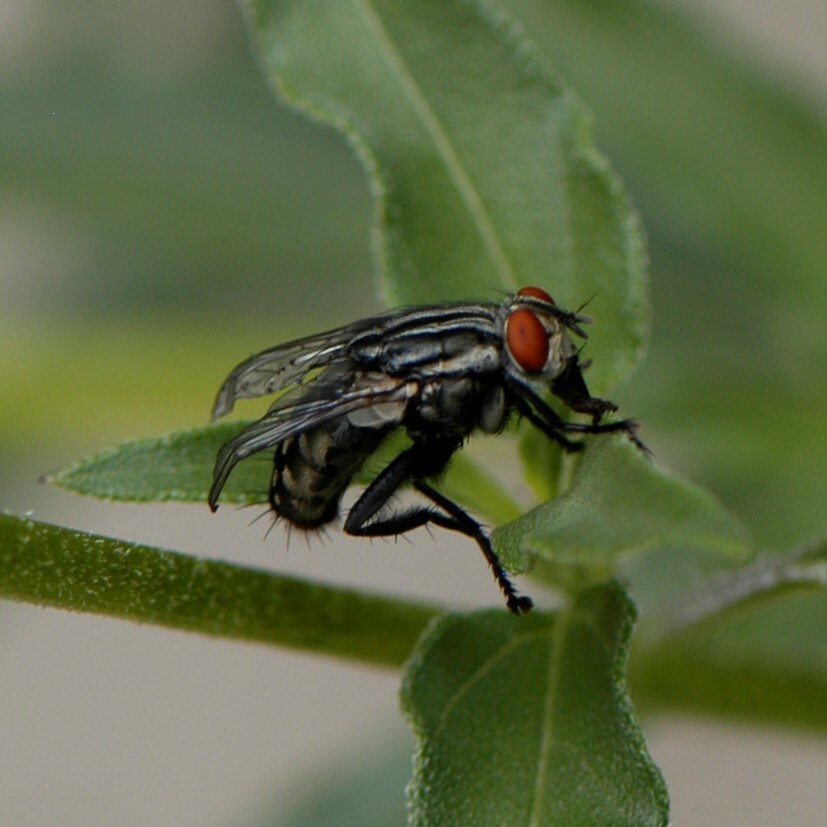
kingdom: Animalia
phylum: Arthropoda
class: Insecta
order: Diptera
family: Sarcophagidae
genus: Sarcophaga
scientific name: Sarcophaga
